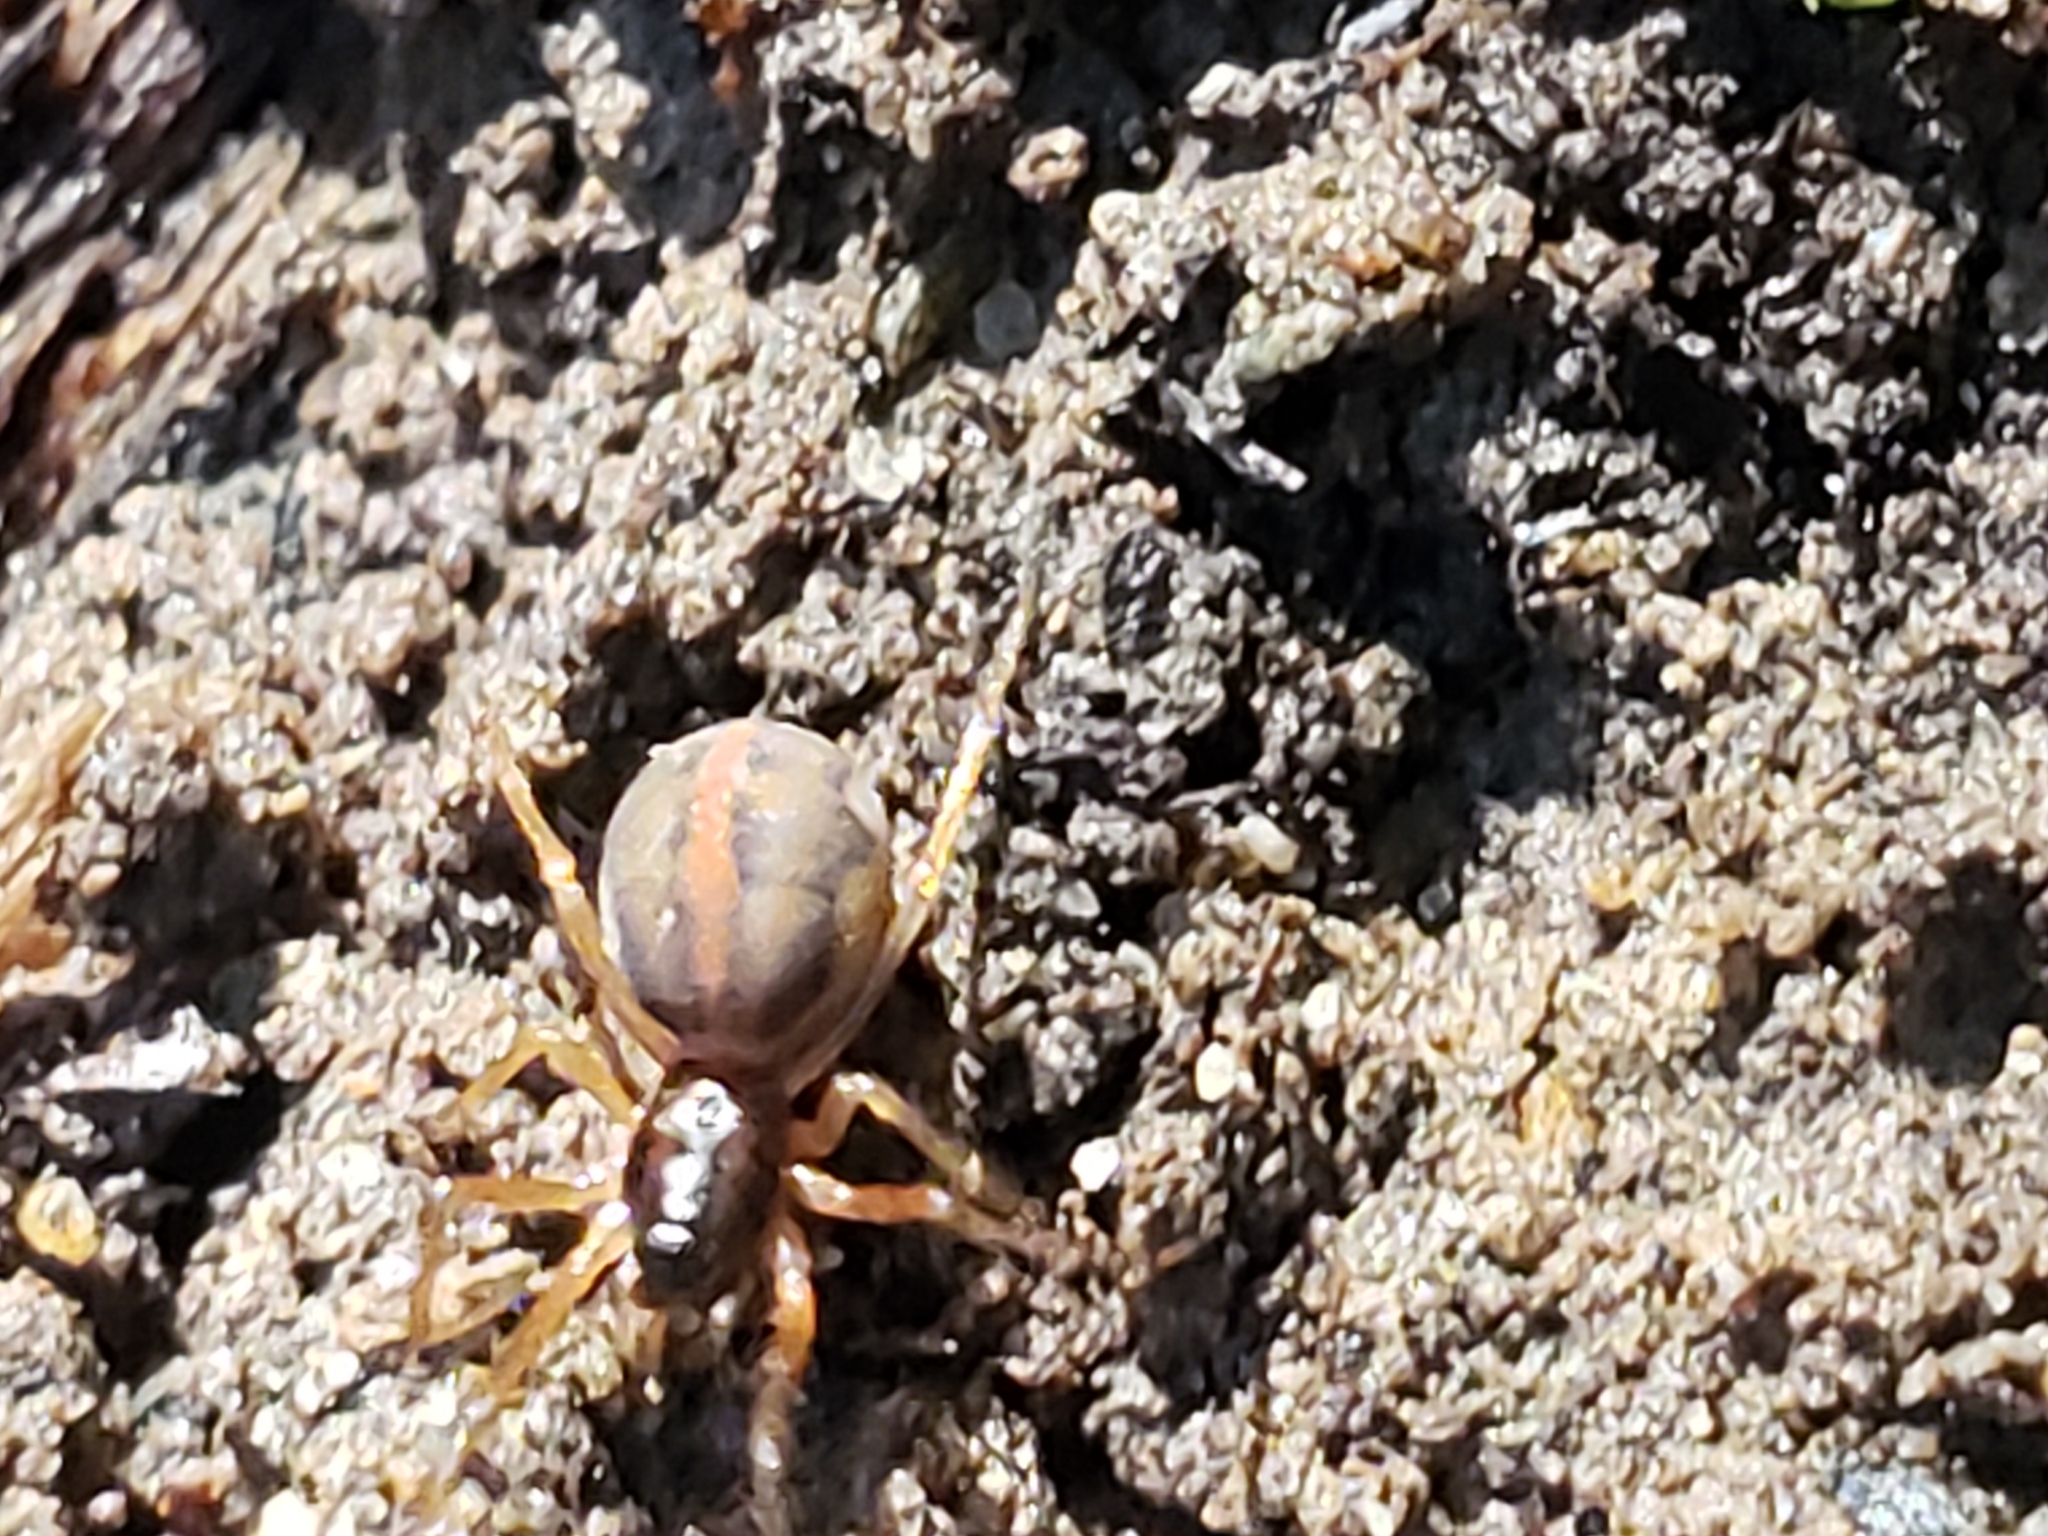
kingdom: Animalia
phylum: Arthropoda
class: Arachnida
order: Araneae
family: Tetragnathidae
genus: Pachygnatha
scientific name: Pachygnatha autumnalis
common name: Big-eyed thick-jawed spider
